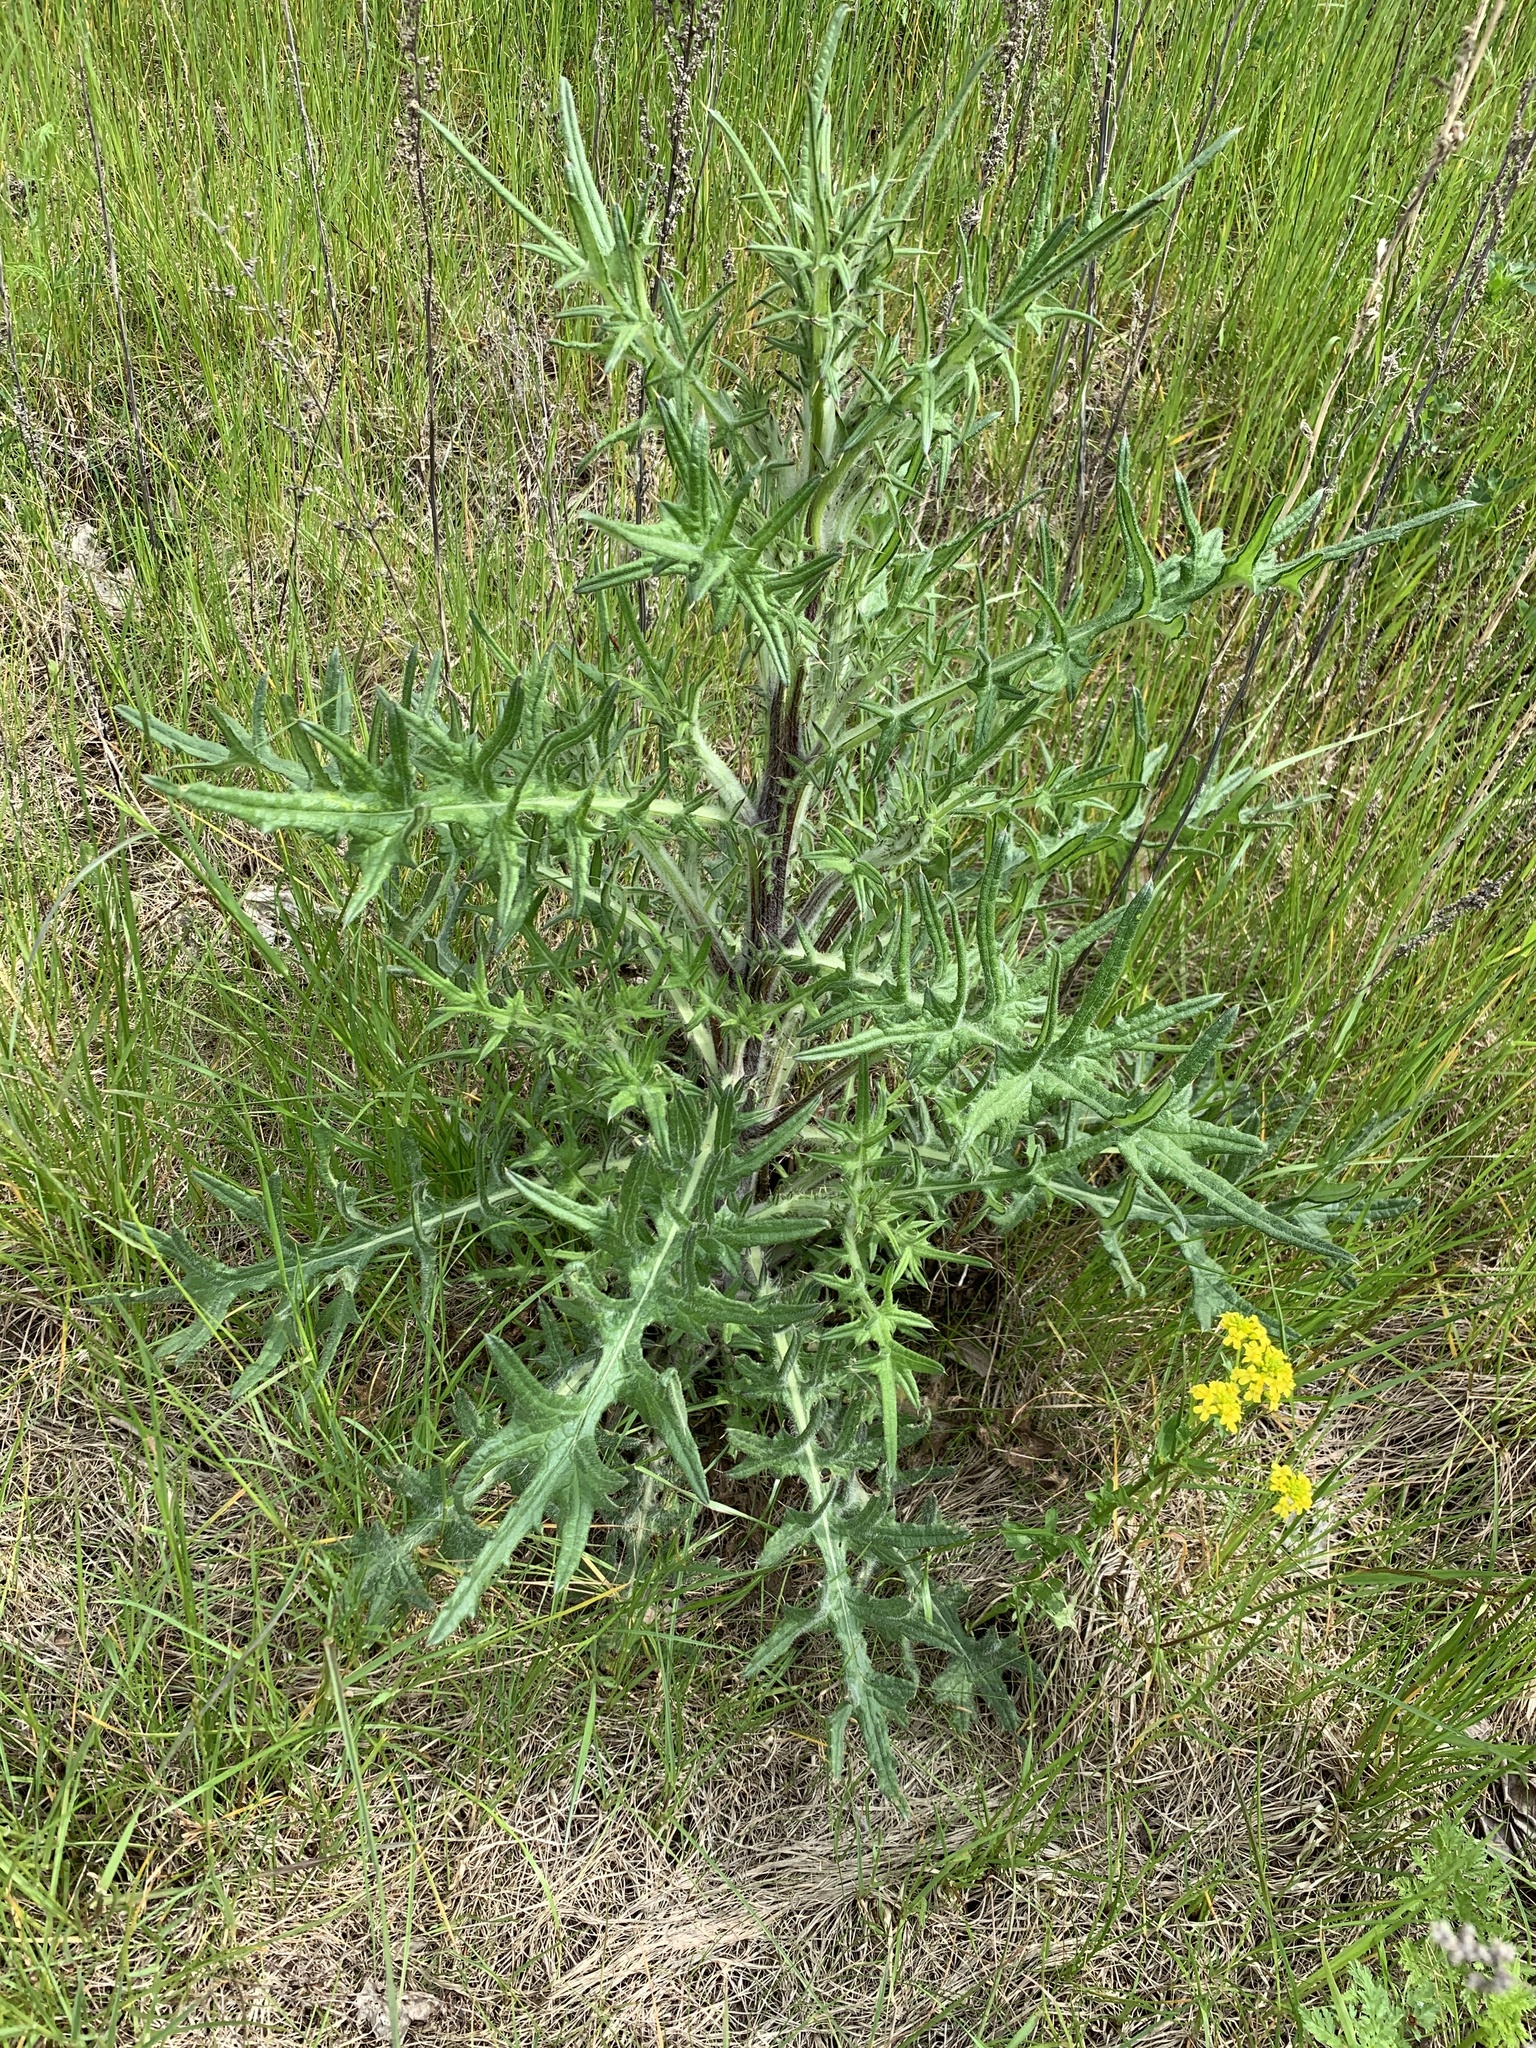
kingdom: Plantae
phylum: Tracheophyta
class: Magnoliopsida
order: Asterales
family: Asteraceae
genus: Cirsium
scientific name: Cirsium vulgare
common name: Bull thistle
